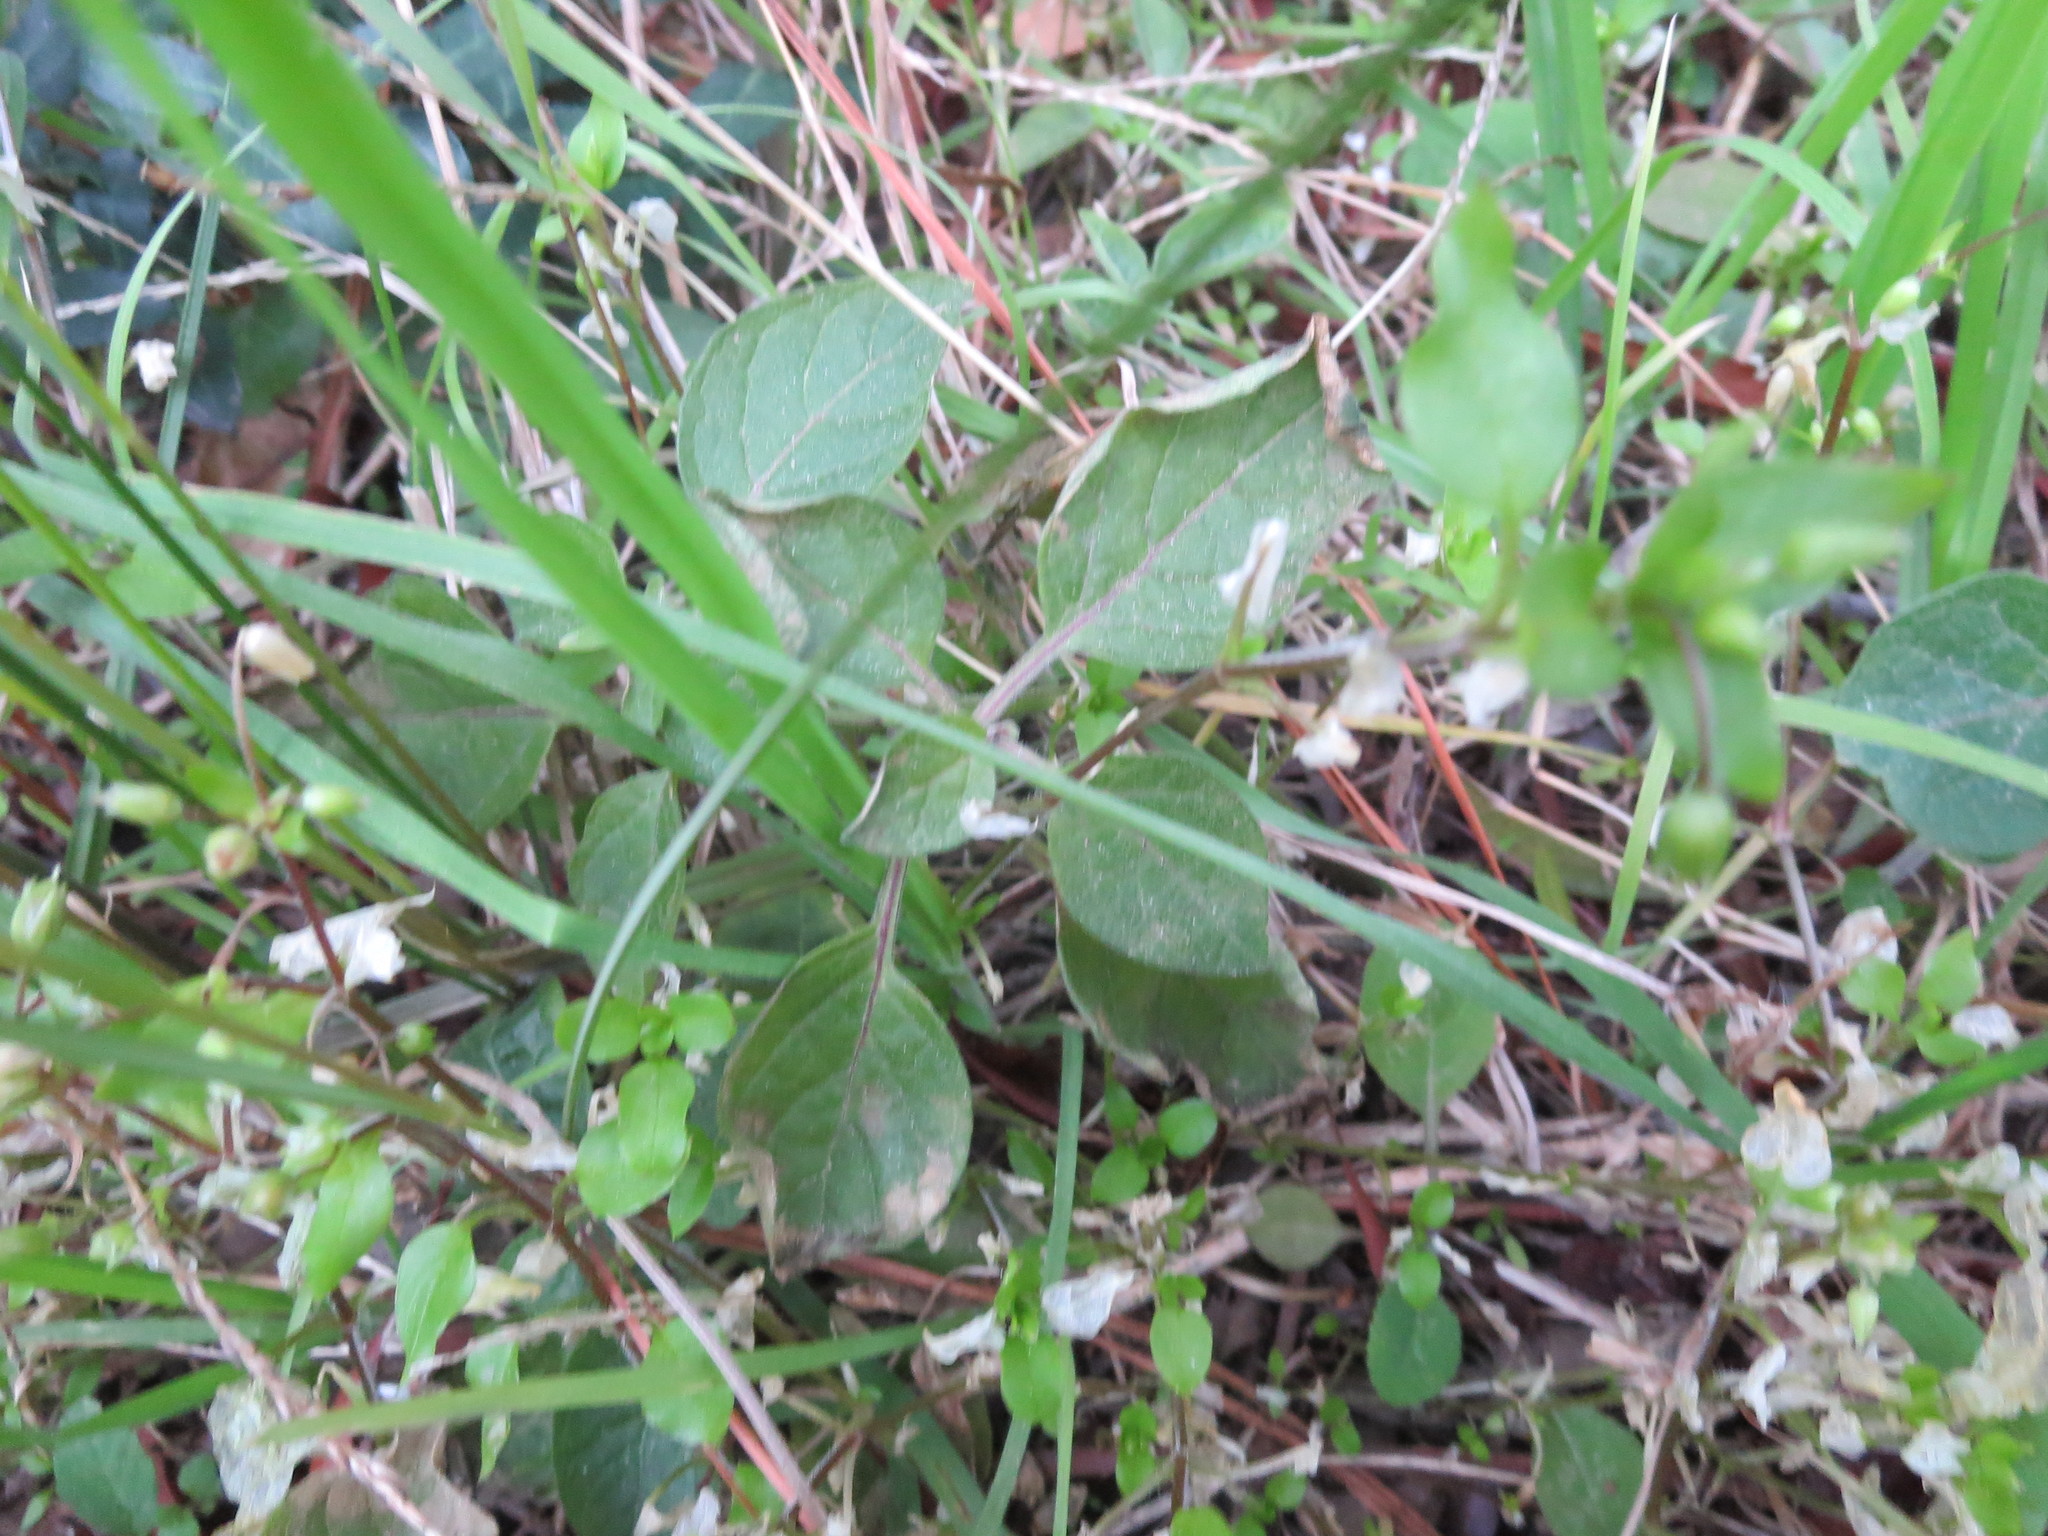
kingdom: Plantae
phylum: Tracheophyta
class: Magnoliopsida
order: Solanales
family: Solanaceae
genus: Physalis
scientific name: Physalis walteri
